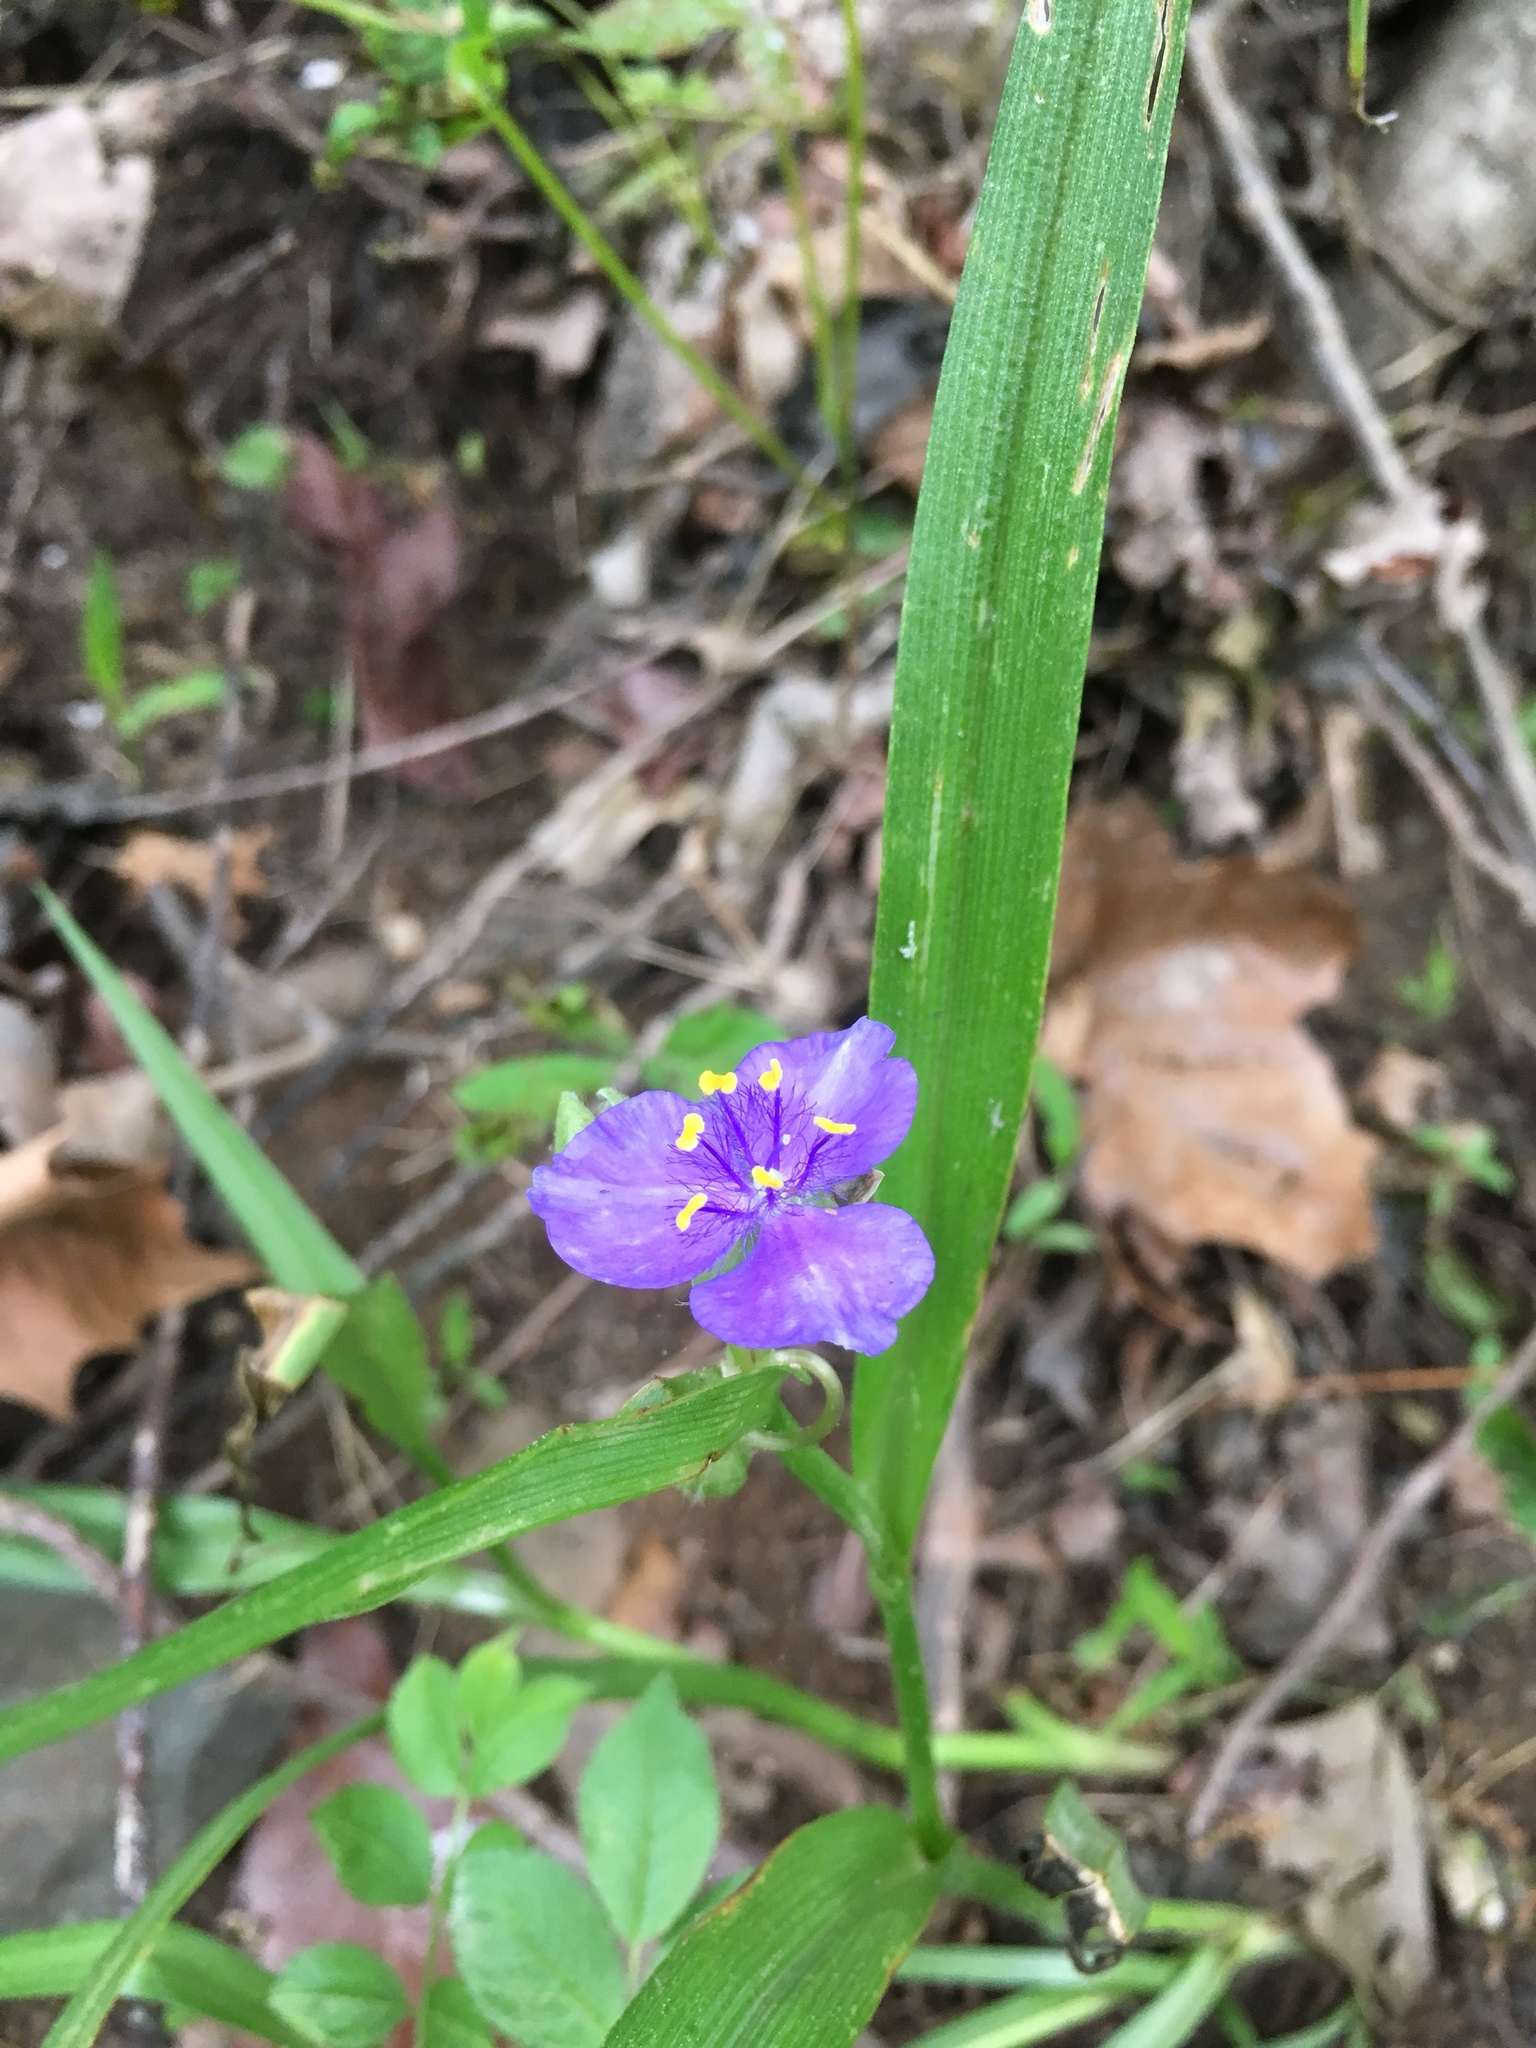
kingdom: Plantae
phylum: Tracheophyta
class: Liliopsida
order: Commelinales
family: Commelinaceae
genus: Tradescantia
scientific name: Tradescantia virginiana
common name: Spiderwort
